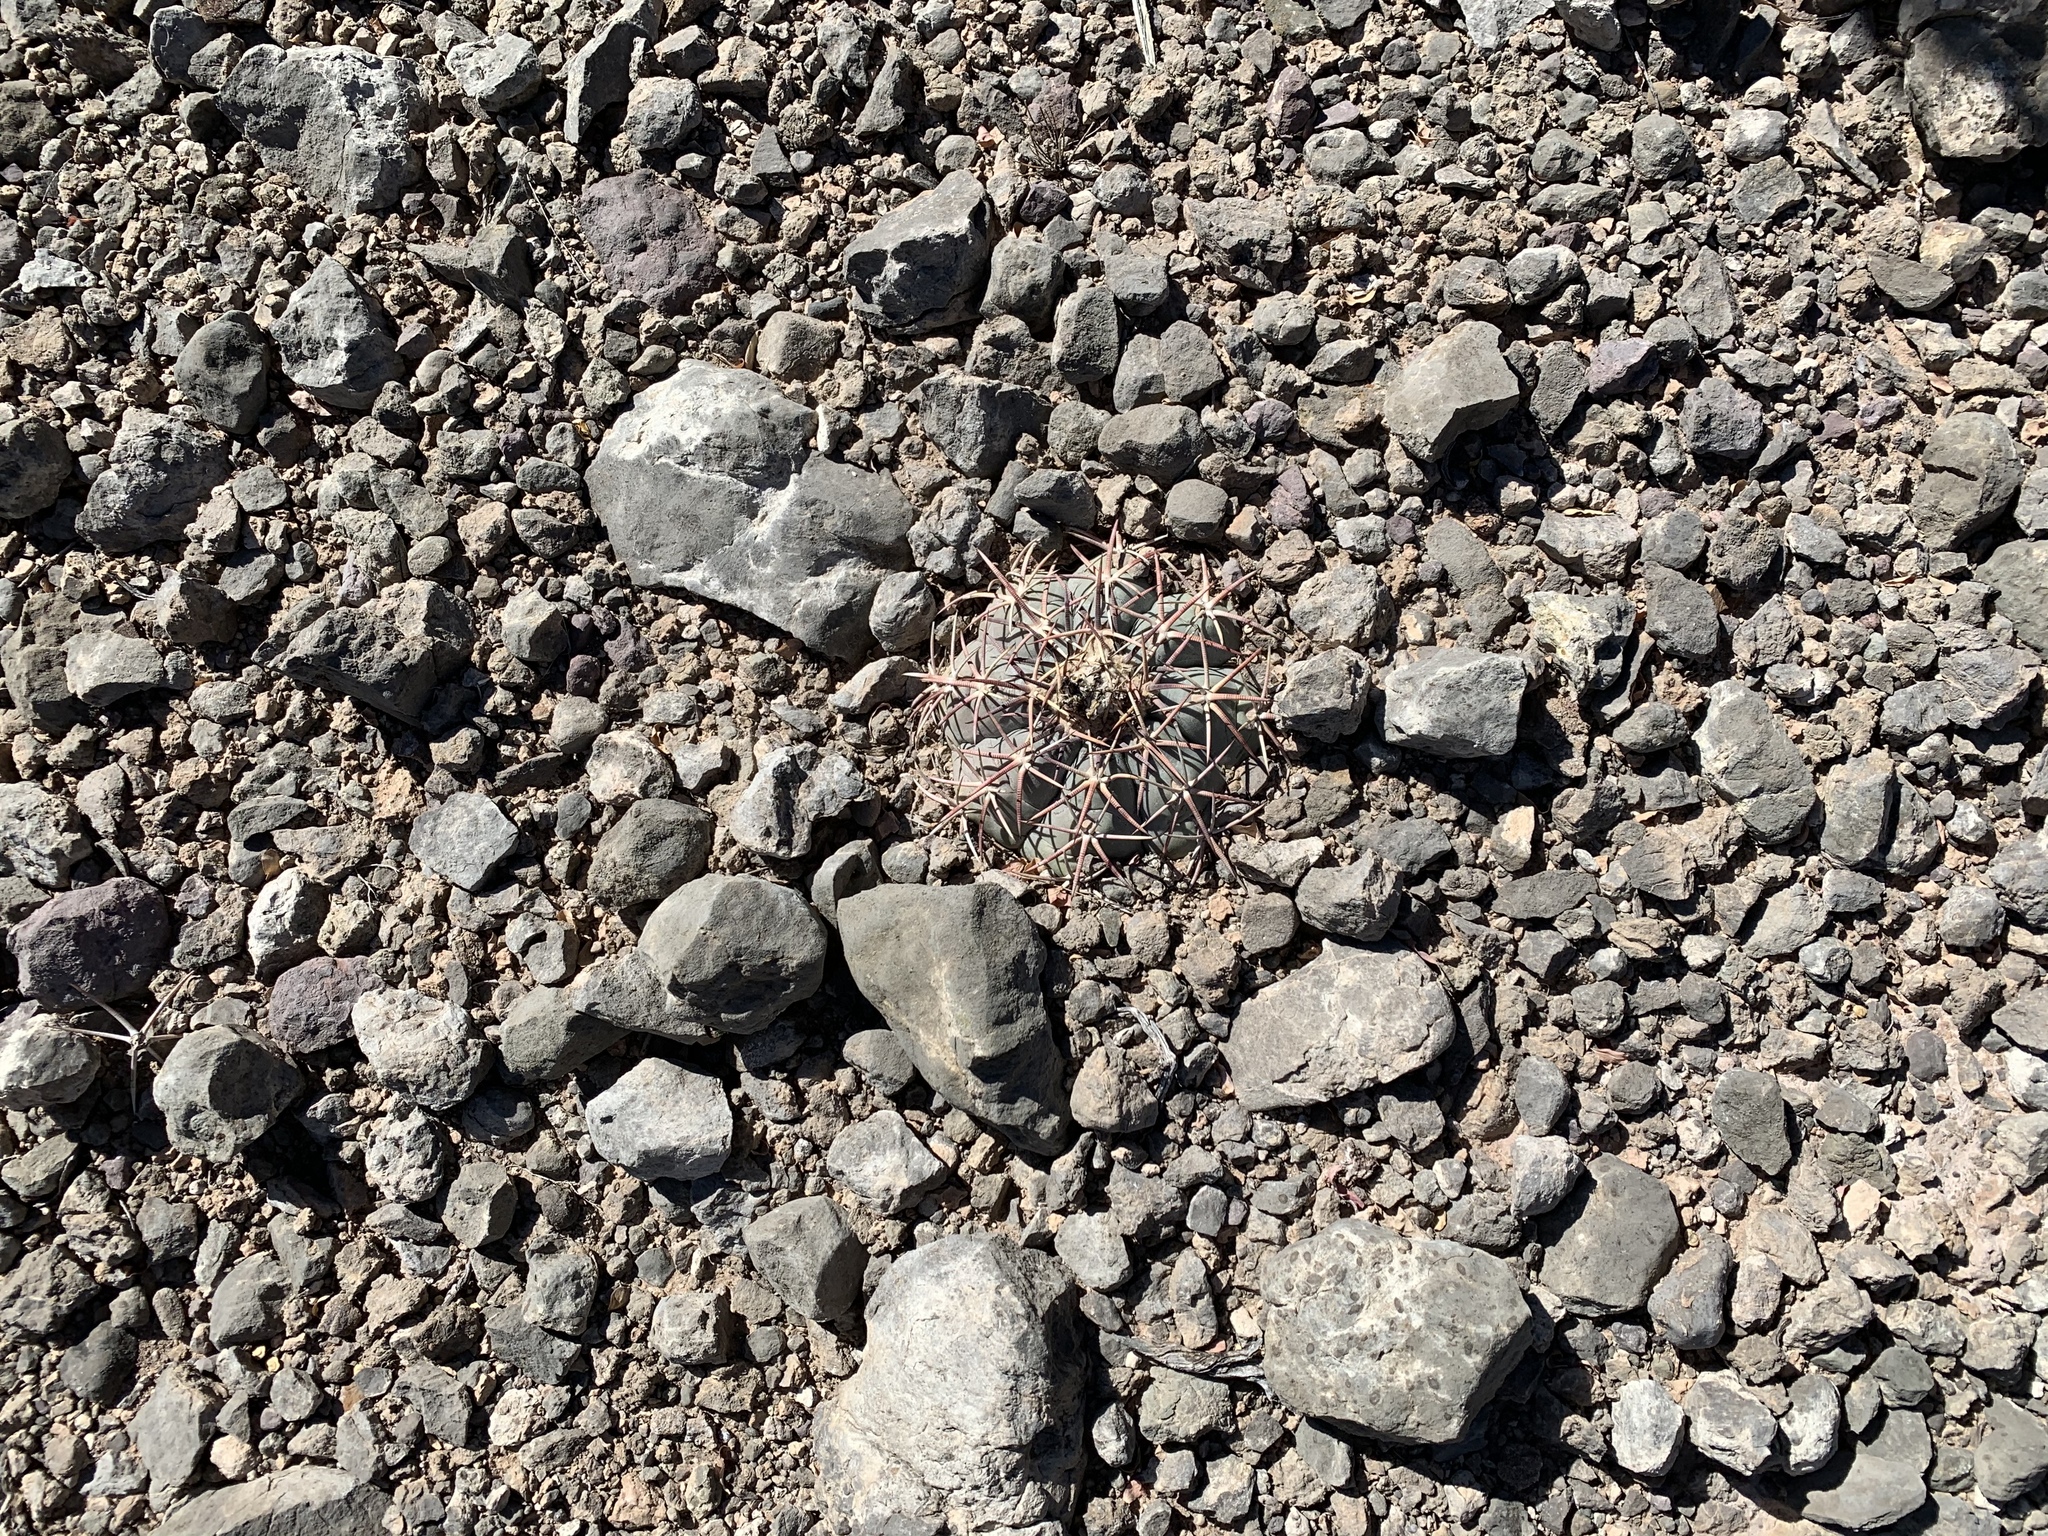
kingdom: Plantae
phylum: Tracheophyta
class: Magnoliopsida
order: Caryophyllales
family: Cactaceae
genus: Echinocactus
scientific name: Echinocactus horizonthalonius
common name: Devilshead
